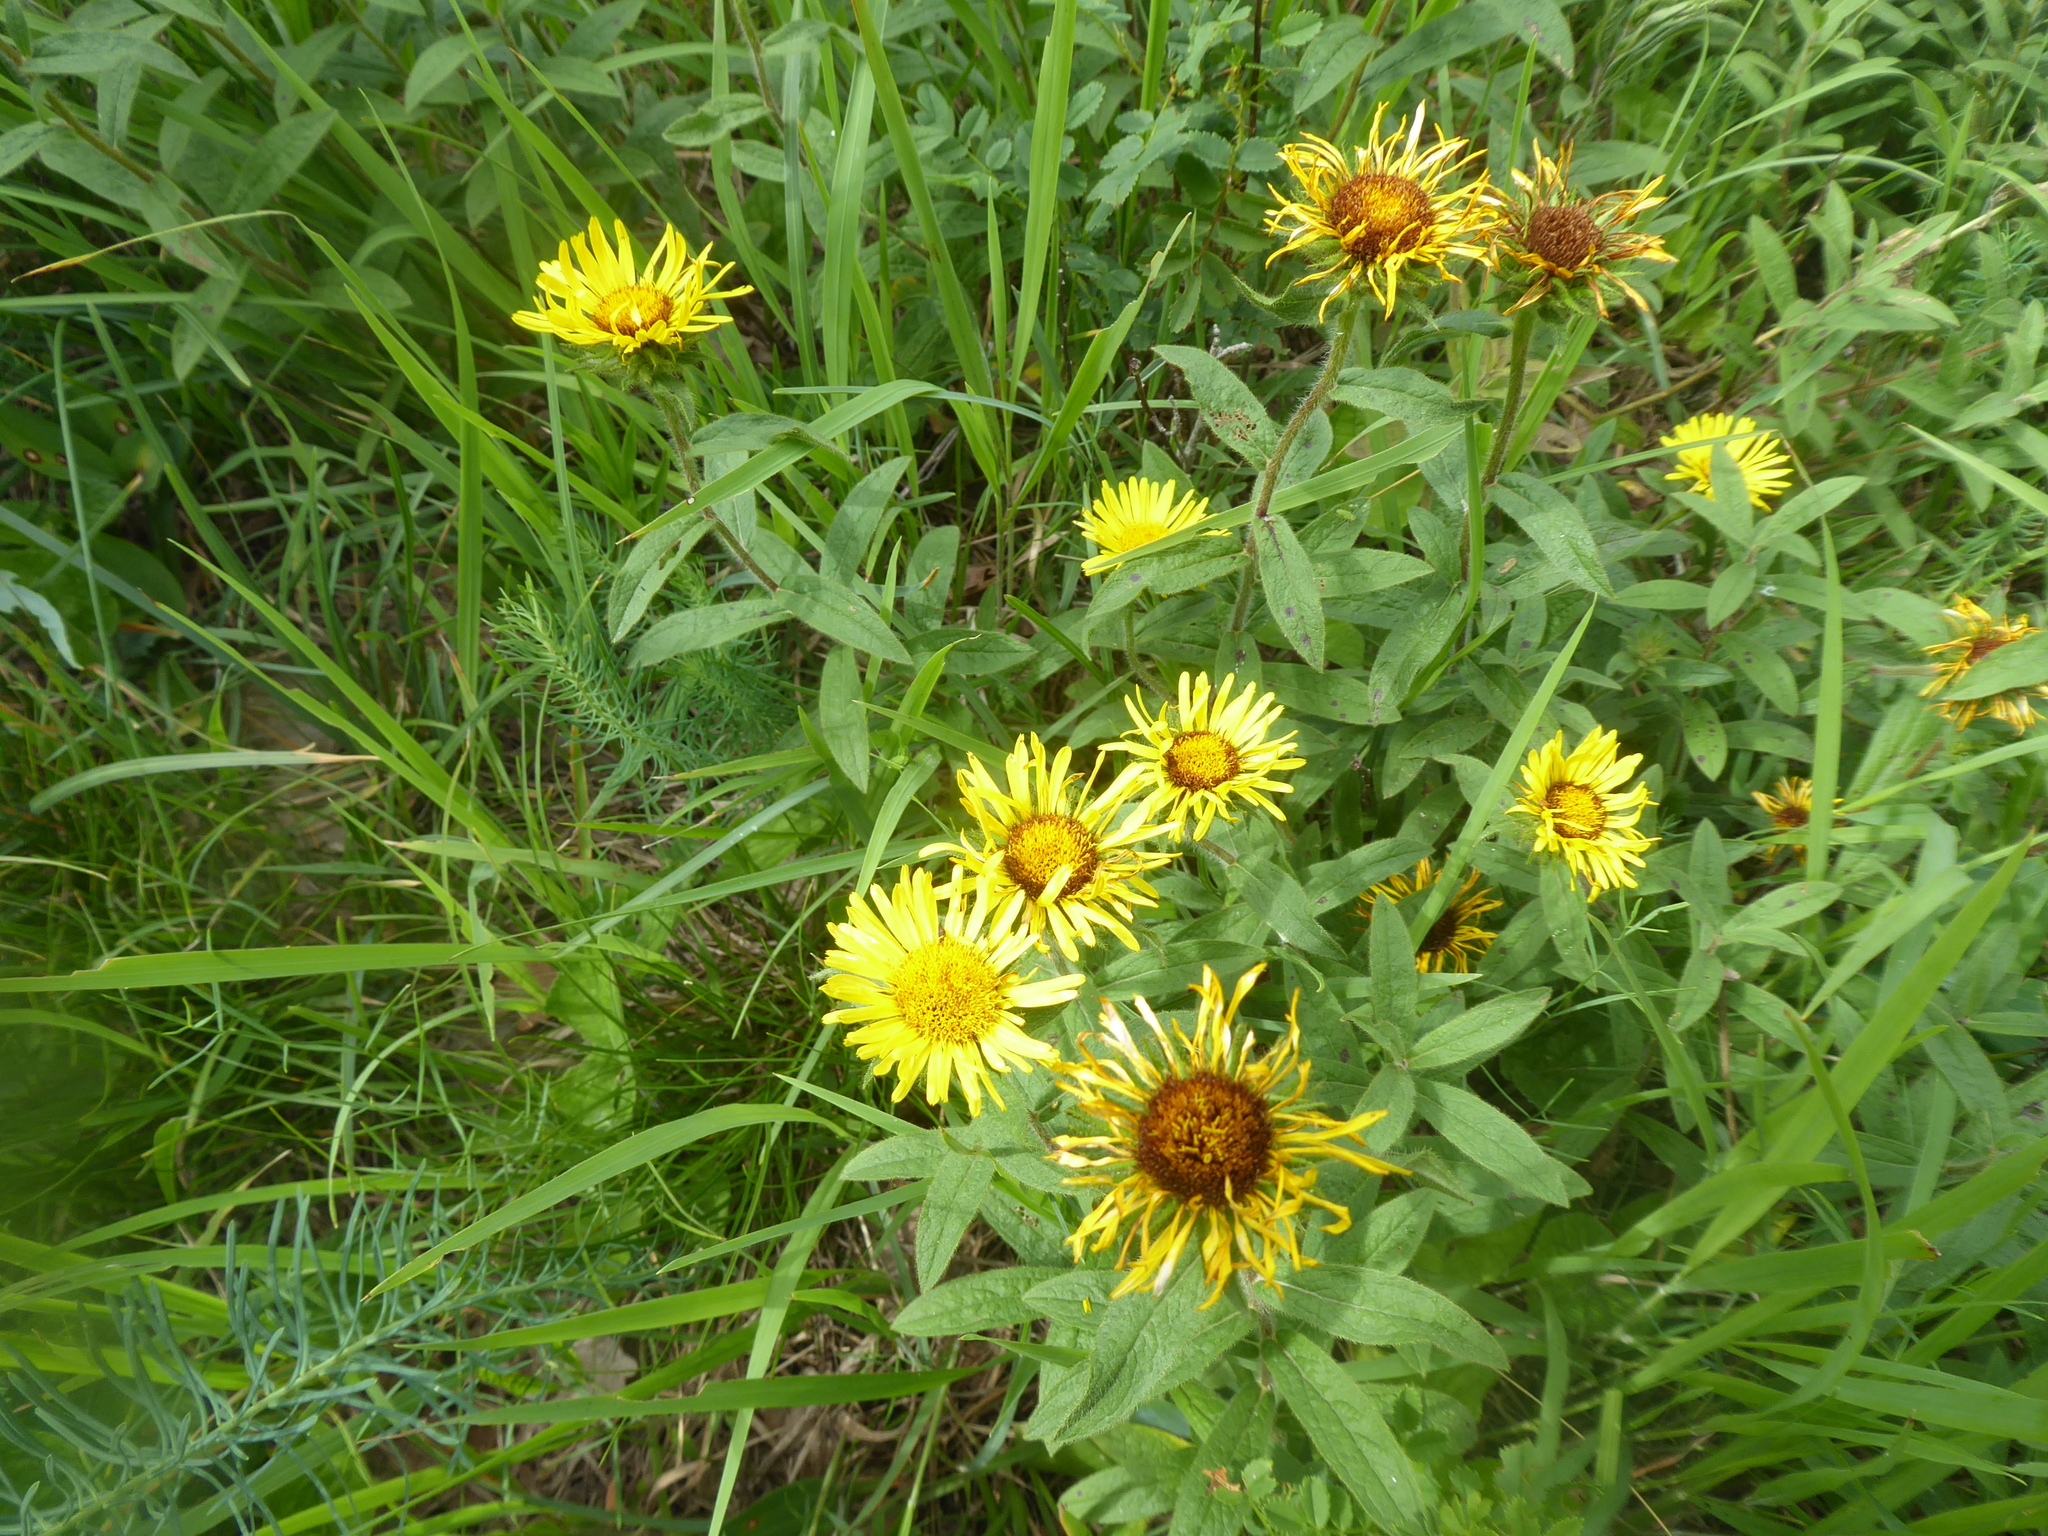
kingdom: Plantae
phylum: Tracheophyta
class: Magnoliopsida
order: Asterales
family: Asteraceae
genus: Pentanema
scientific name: Pentanema hirtum
